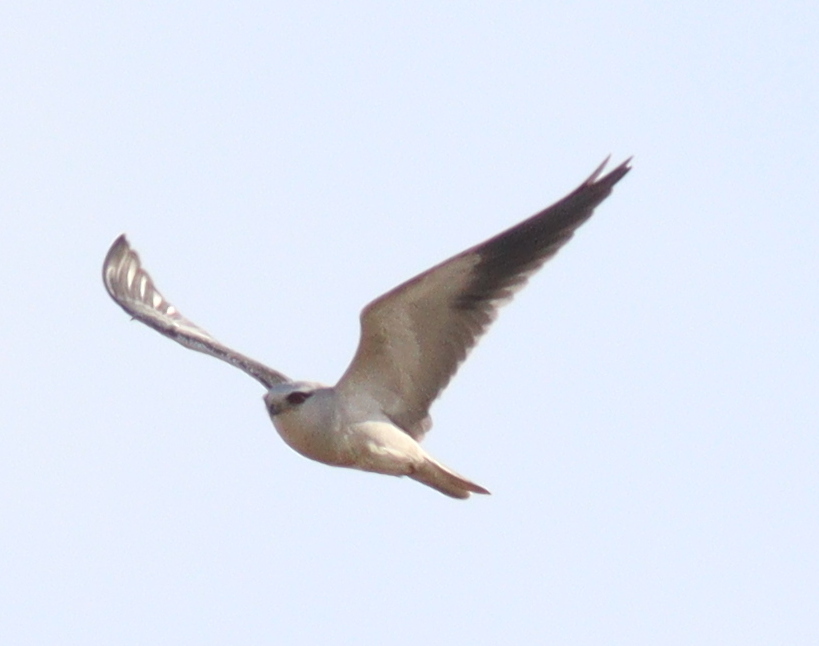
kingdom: Animalia
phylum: Chordata
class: Aves
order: Accipitriformes
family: Accipitridae
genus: Elanus
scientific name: Elanus caeruleus
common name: Black-winged kite
